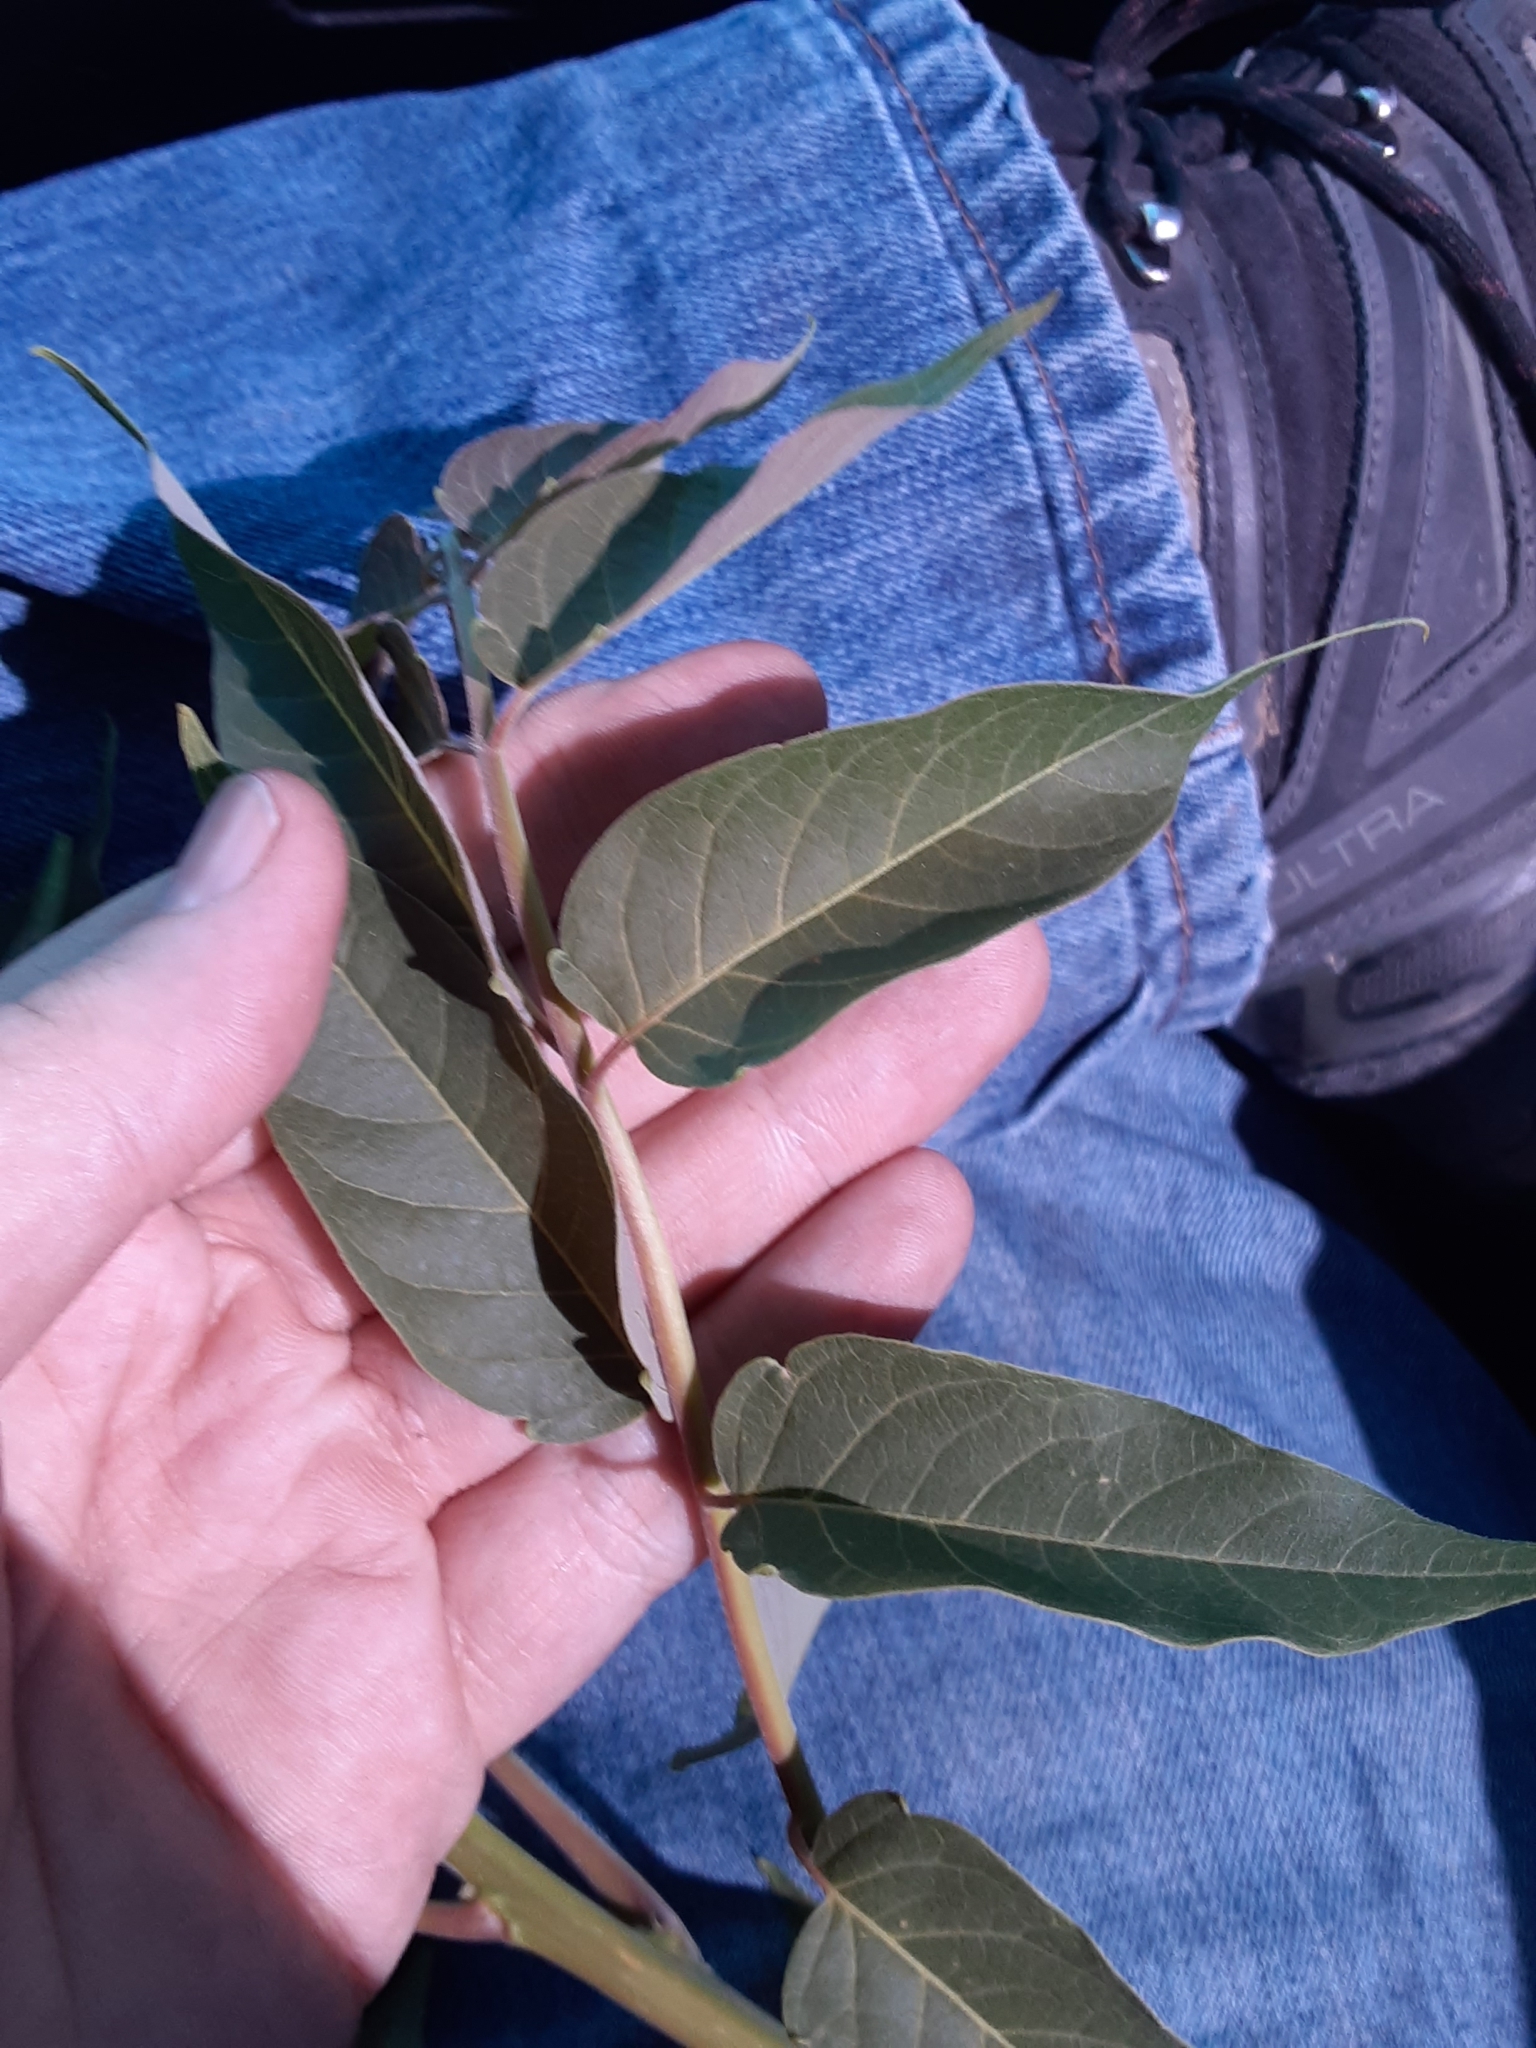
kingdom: Plantae
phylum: Tracheophyta
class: Magnoliopsida
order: Sapindales
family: Simaroubaceae
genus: Ailanthus
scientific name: Ailanthus altissima
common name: Tree-of-heaven
